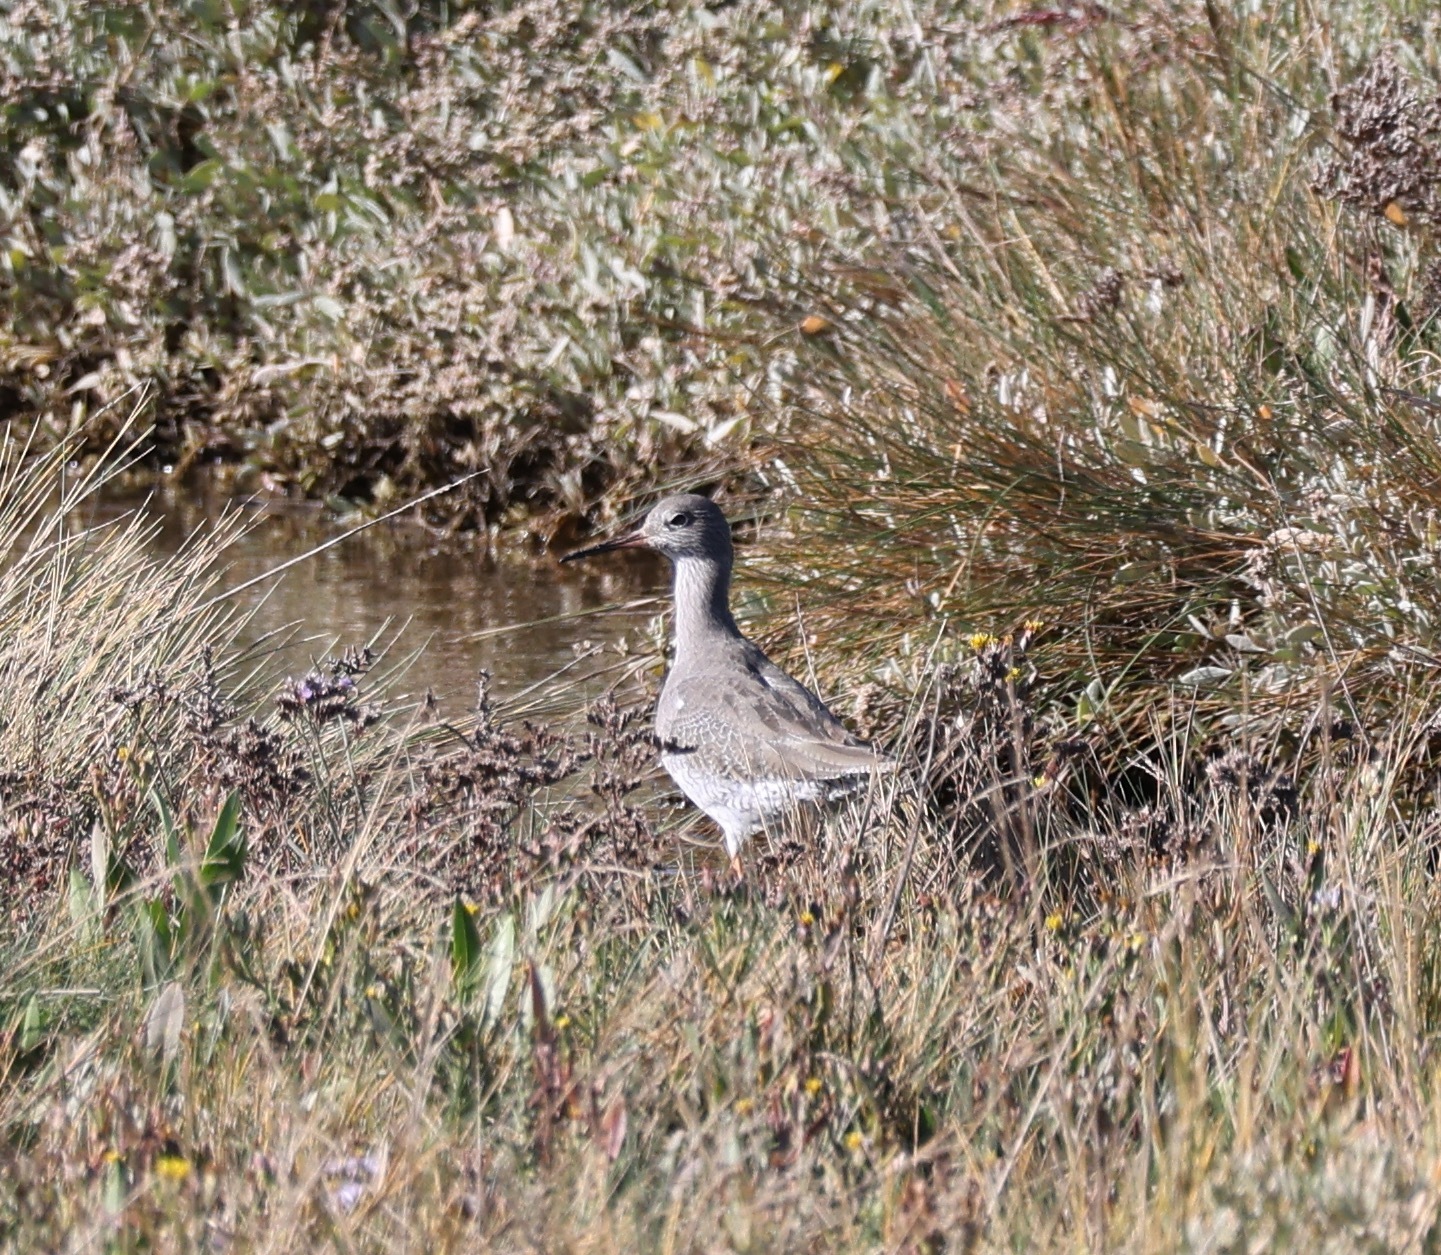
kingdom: Animalia
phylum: Chordata
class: Aves
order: Charadriiformes
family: Scolopacidae
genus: Tringa
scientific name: Tringa totanus
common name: Common redshank
